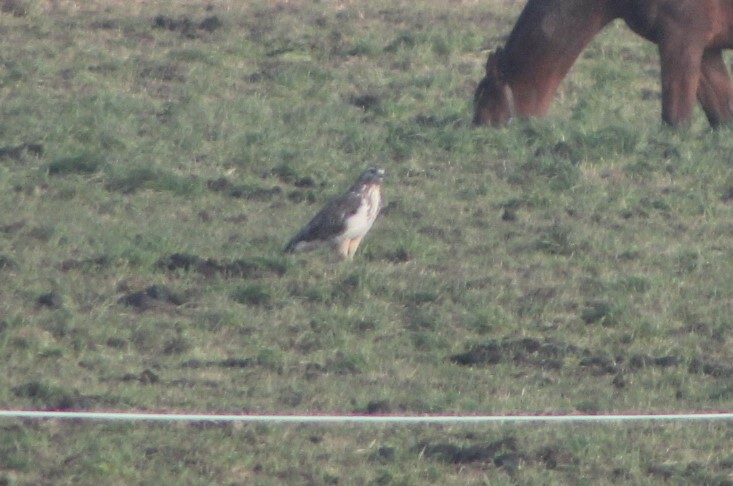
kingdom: Animalia
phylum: Chordata
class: Aves
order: Accipitriformes
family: Accipitridae
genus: Buteo
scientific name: Buteo buteo
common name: Common buzzard
